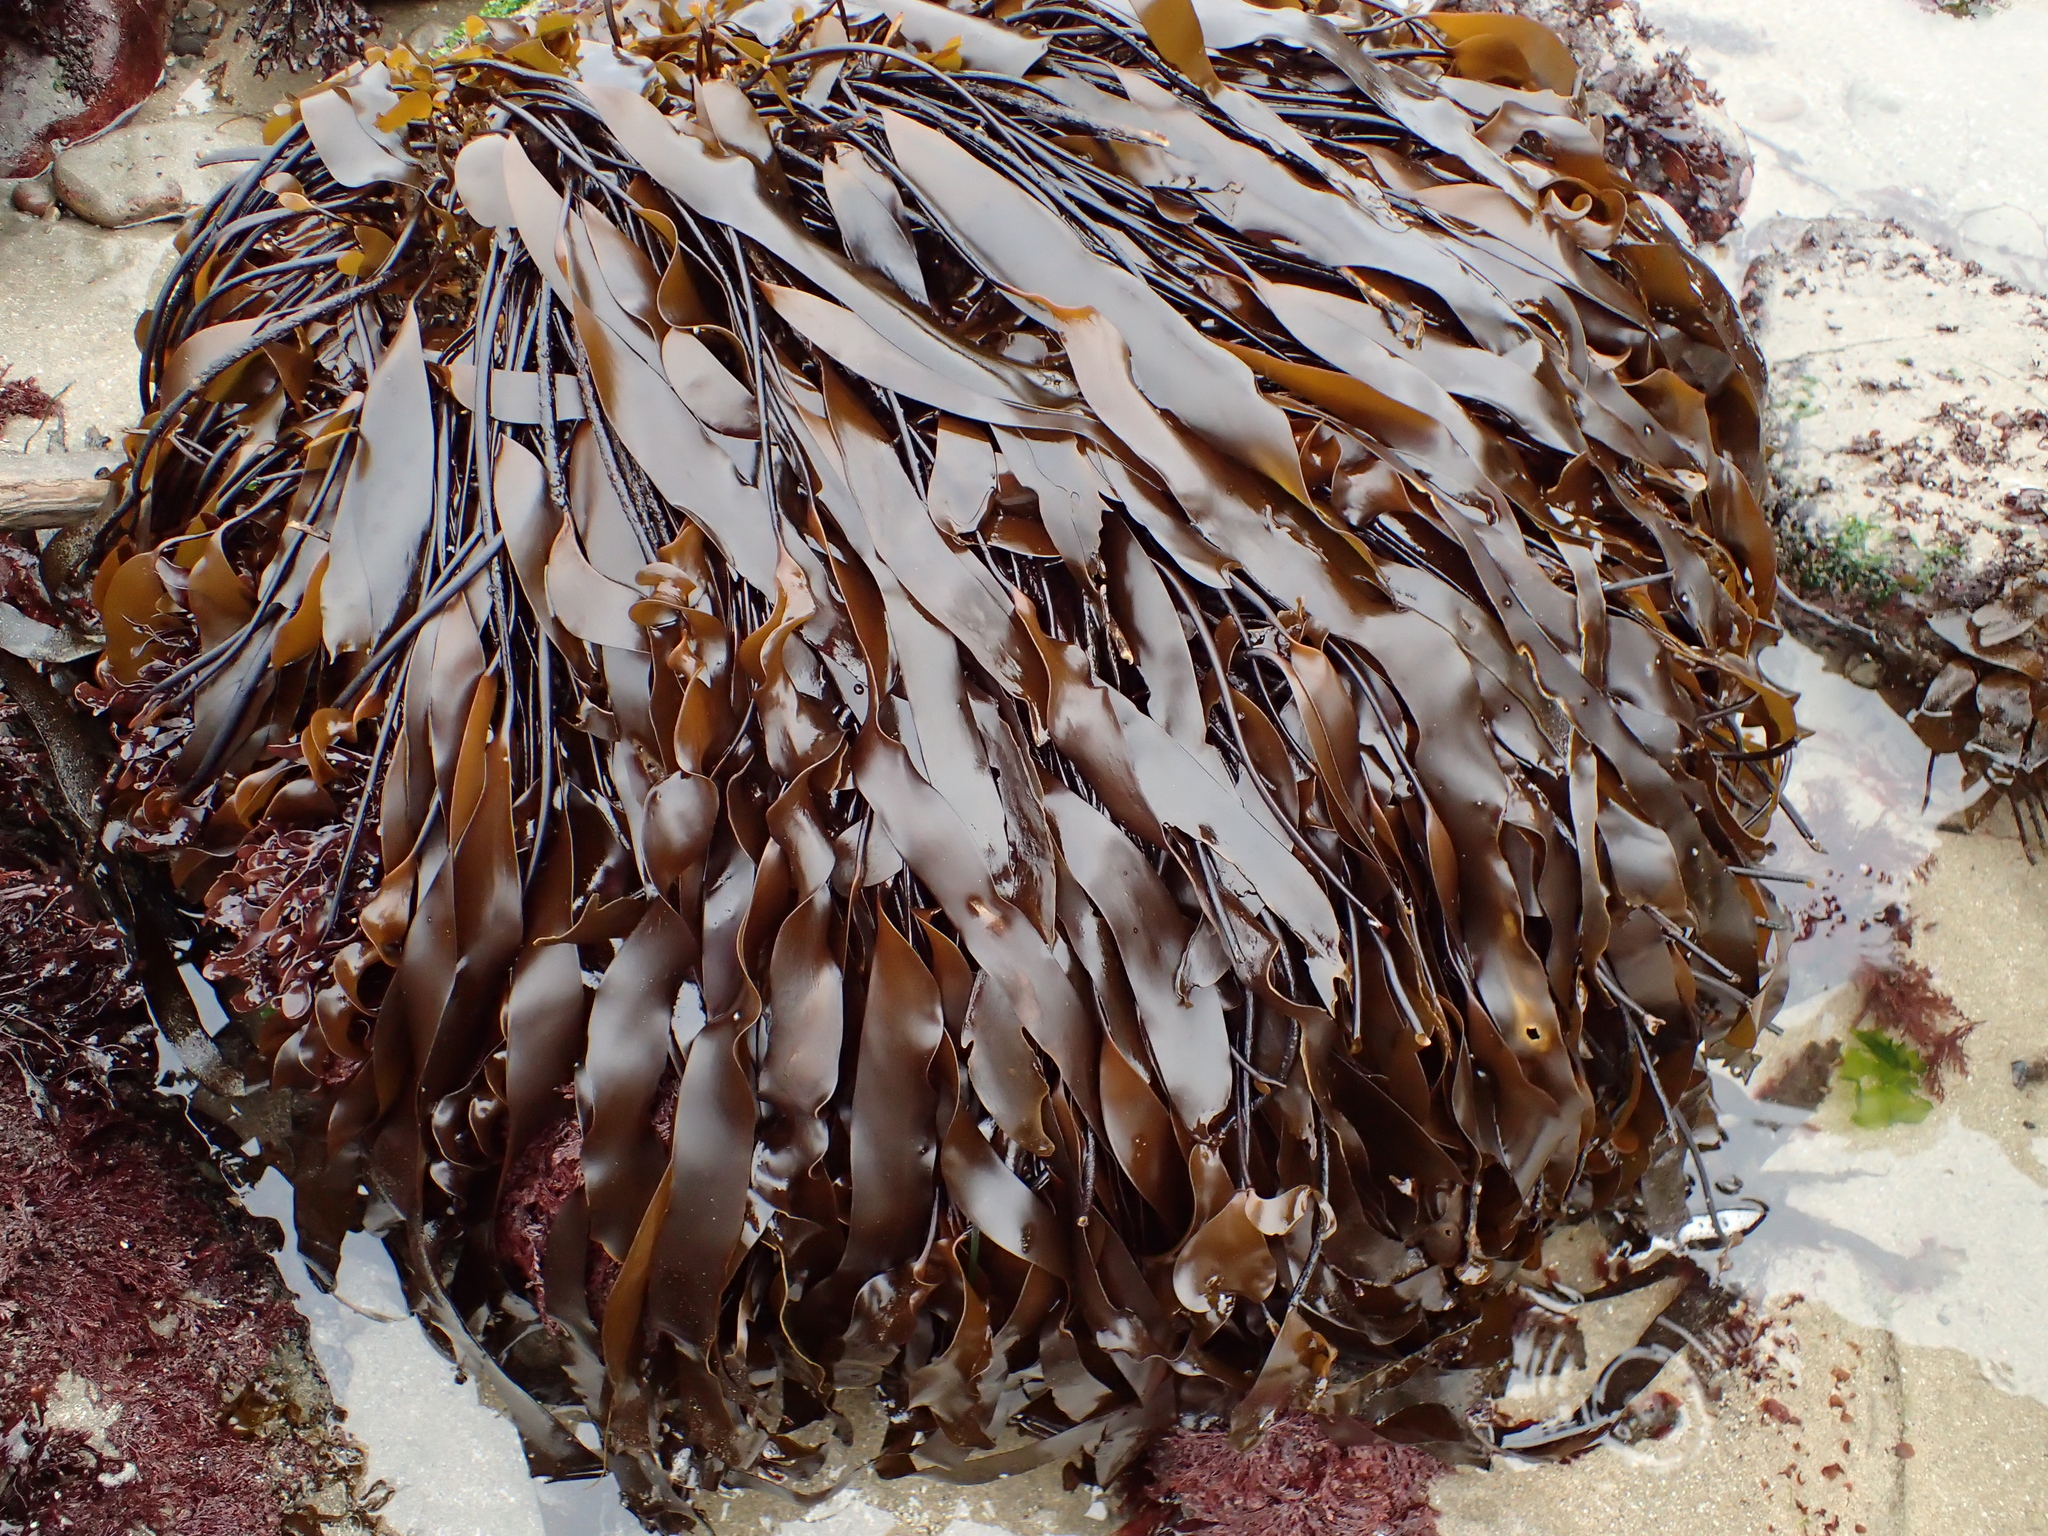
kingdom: Chromista
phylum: Ochrophyta
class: Phaeophyceae
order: Laminariales
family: Laminariaceae
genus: Laminaria
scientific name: Laminaria sinclairii
